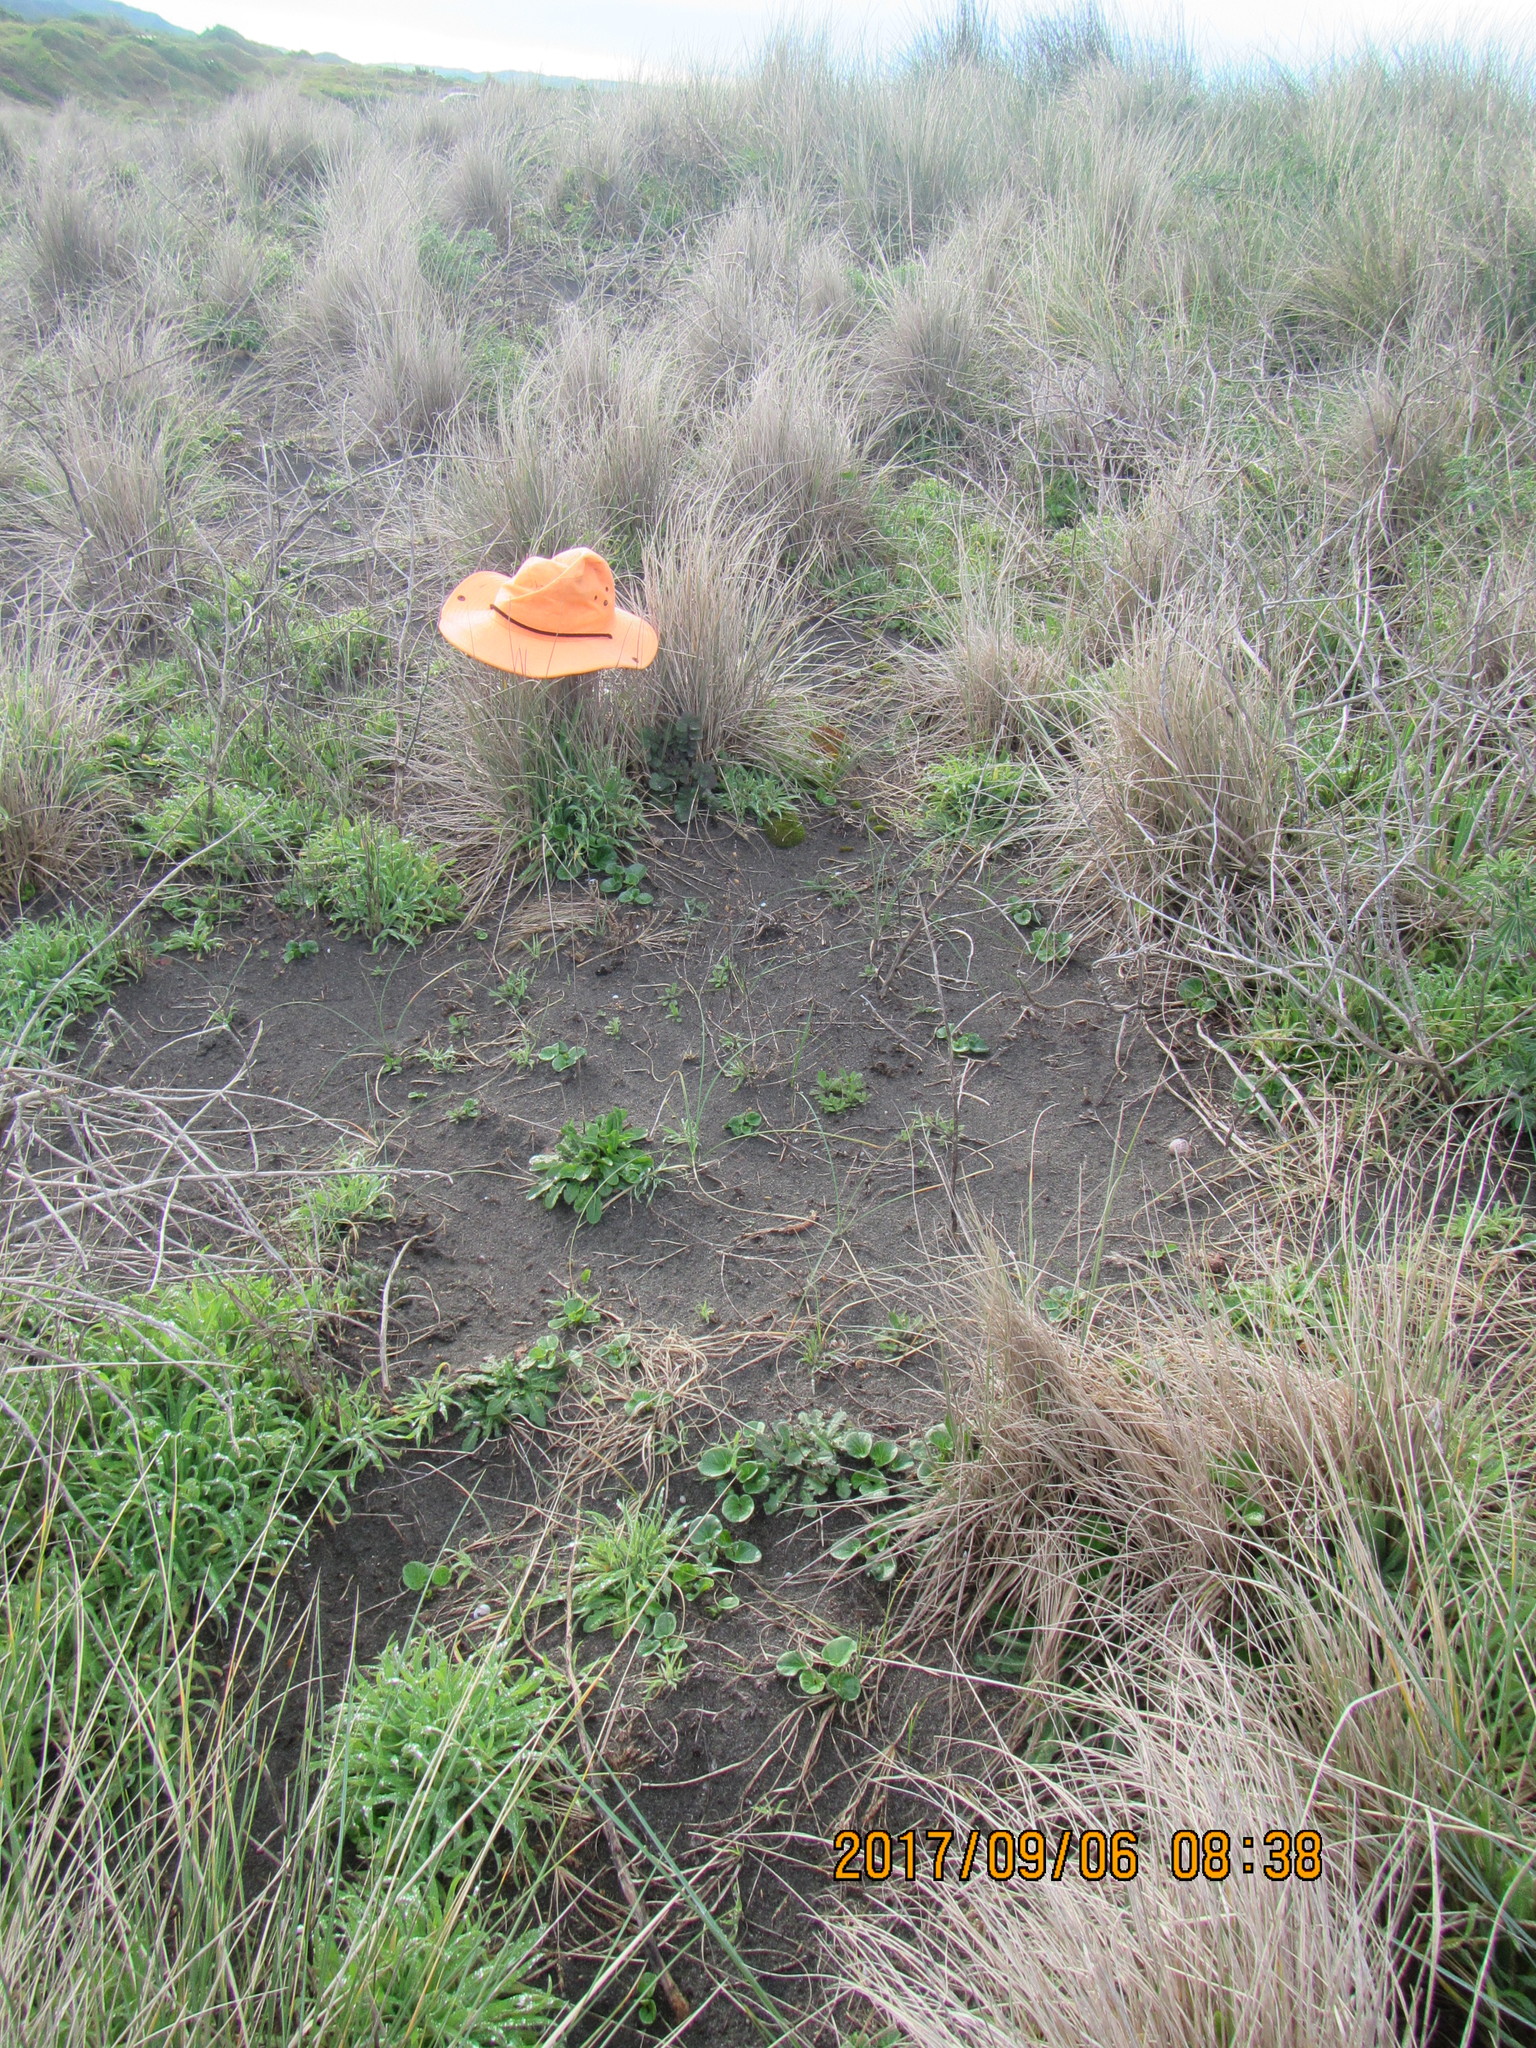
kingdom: Plantae
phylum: Tracheophyta
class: Magnoliopsida
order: Solanales
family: Convolvulaceae
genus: Calystegia
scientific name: Calystegia soldanella
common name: Sea bindweed
